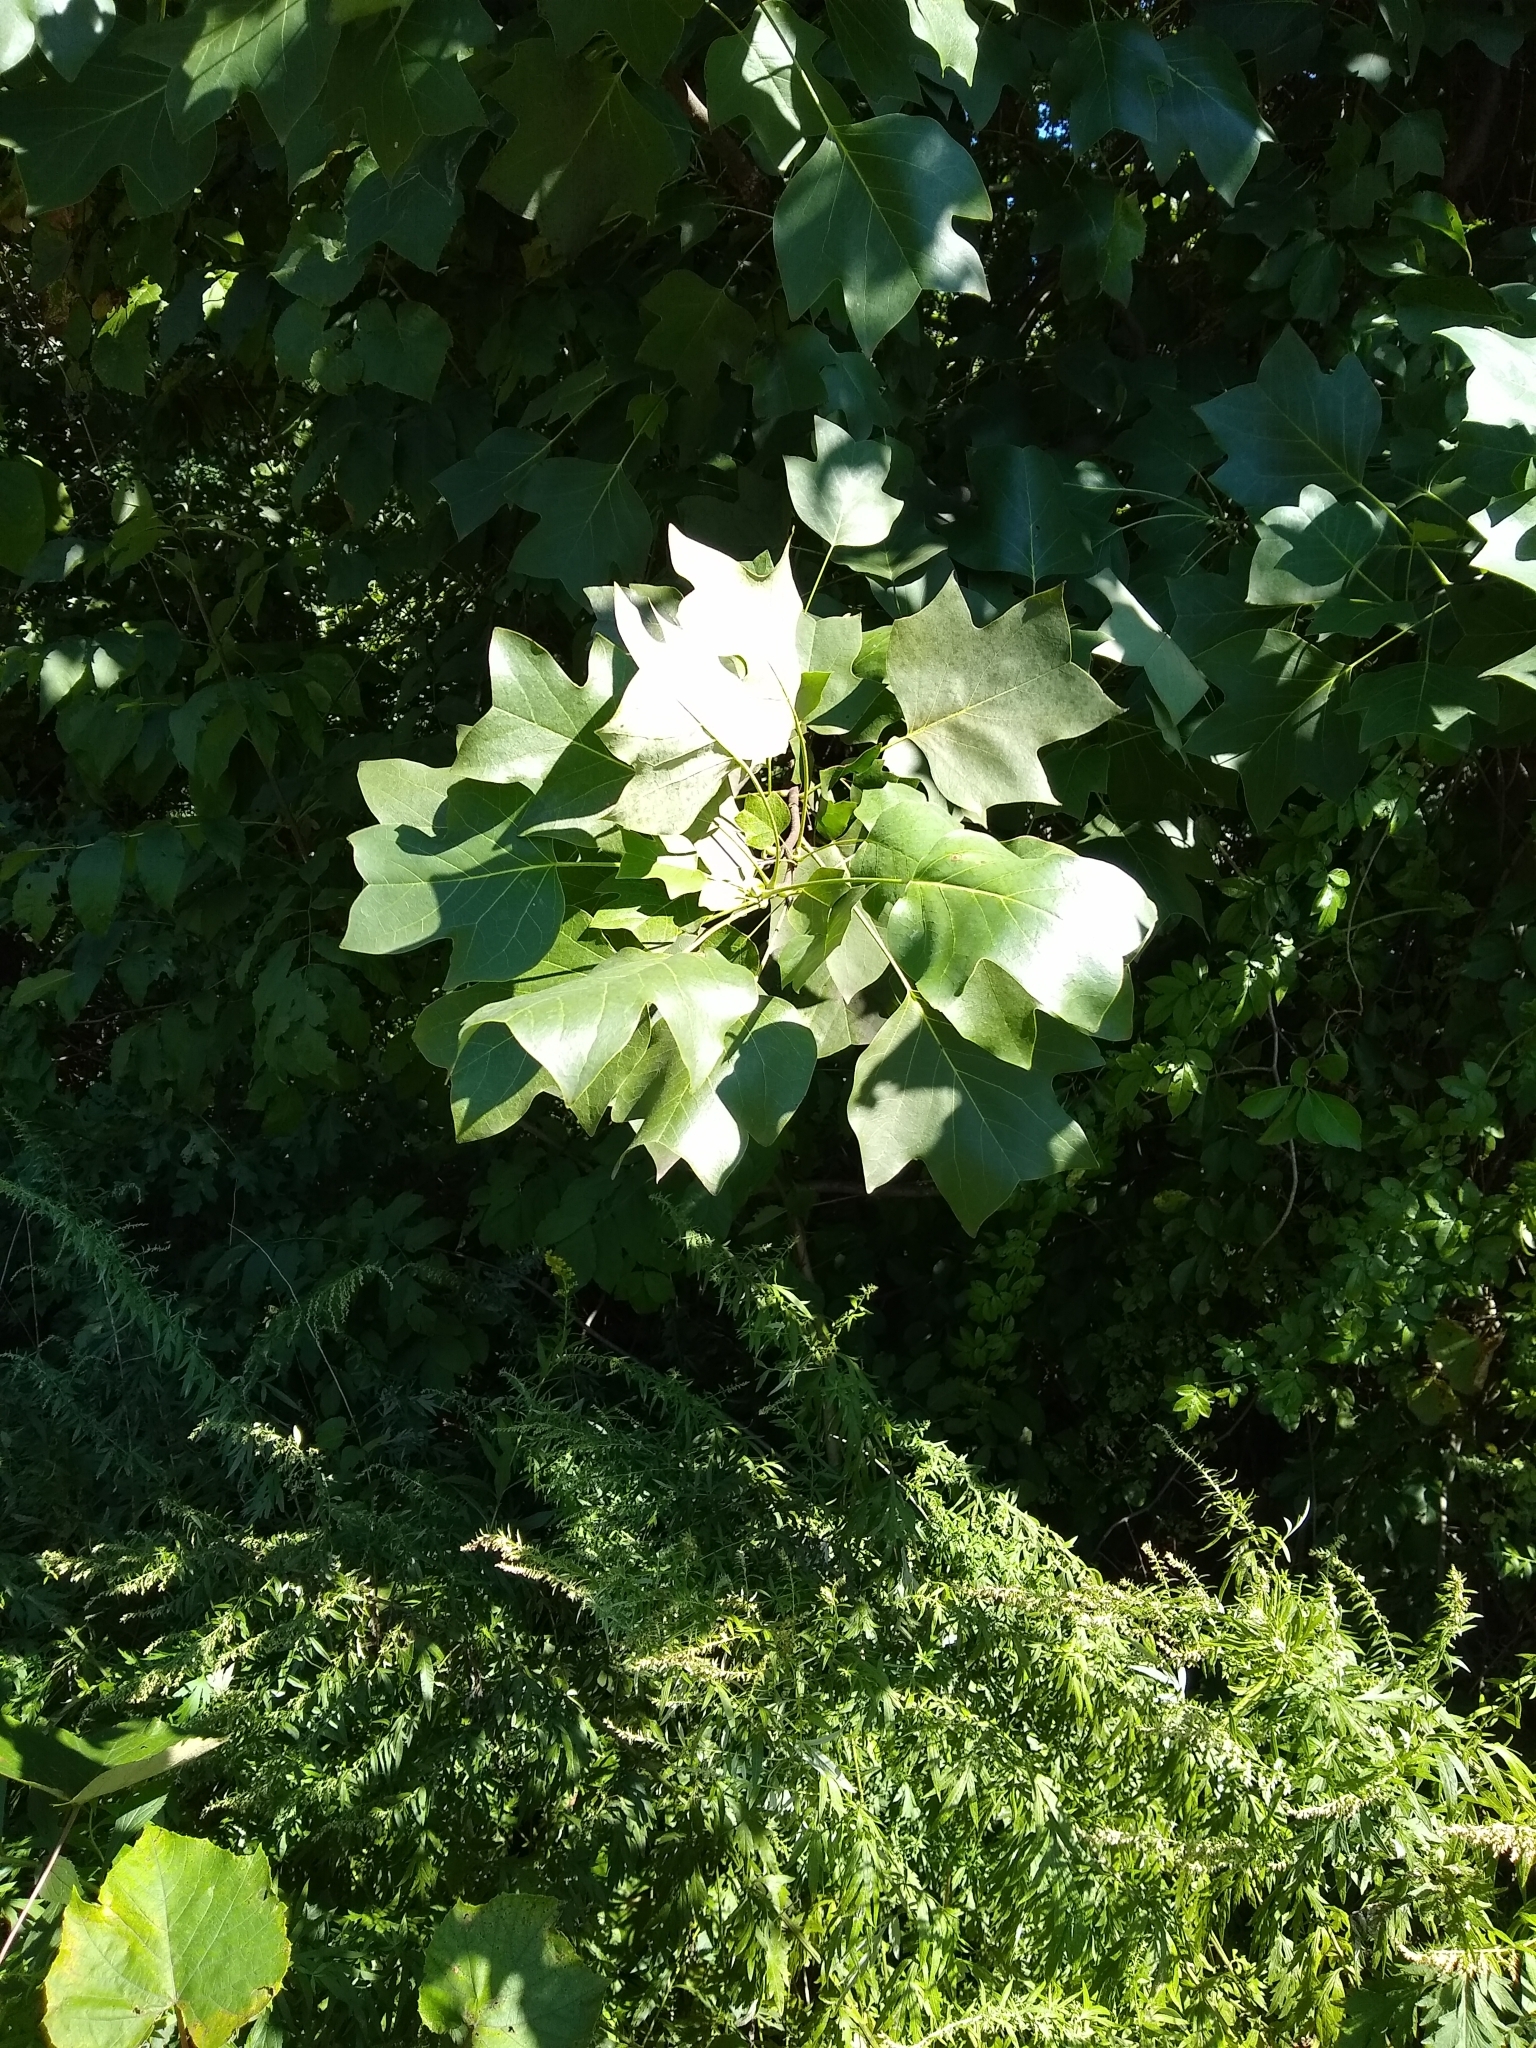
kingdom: Plantae
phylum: Tracheophyta
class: Magnoliopsida
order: Magnoliales
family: Magnoliaceae
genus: Liriodendron
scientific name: Liriodendron tulipifera
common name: Tulip tree
